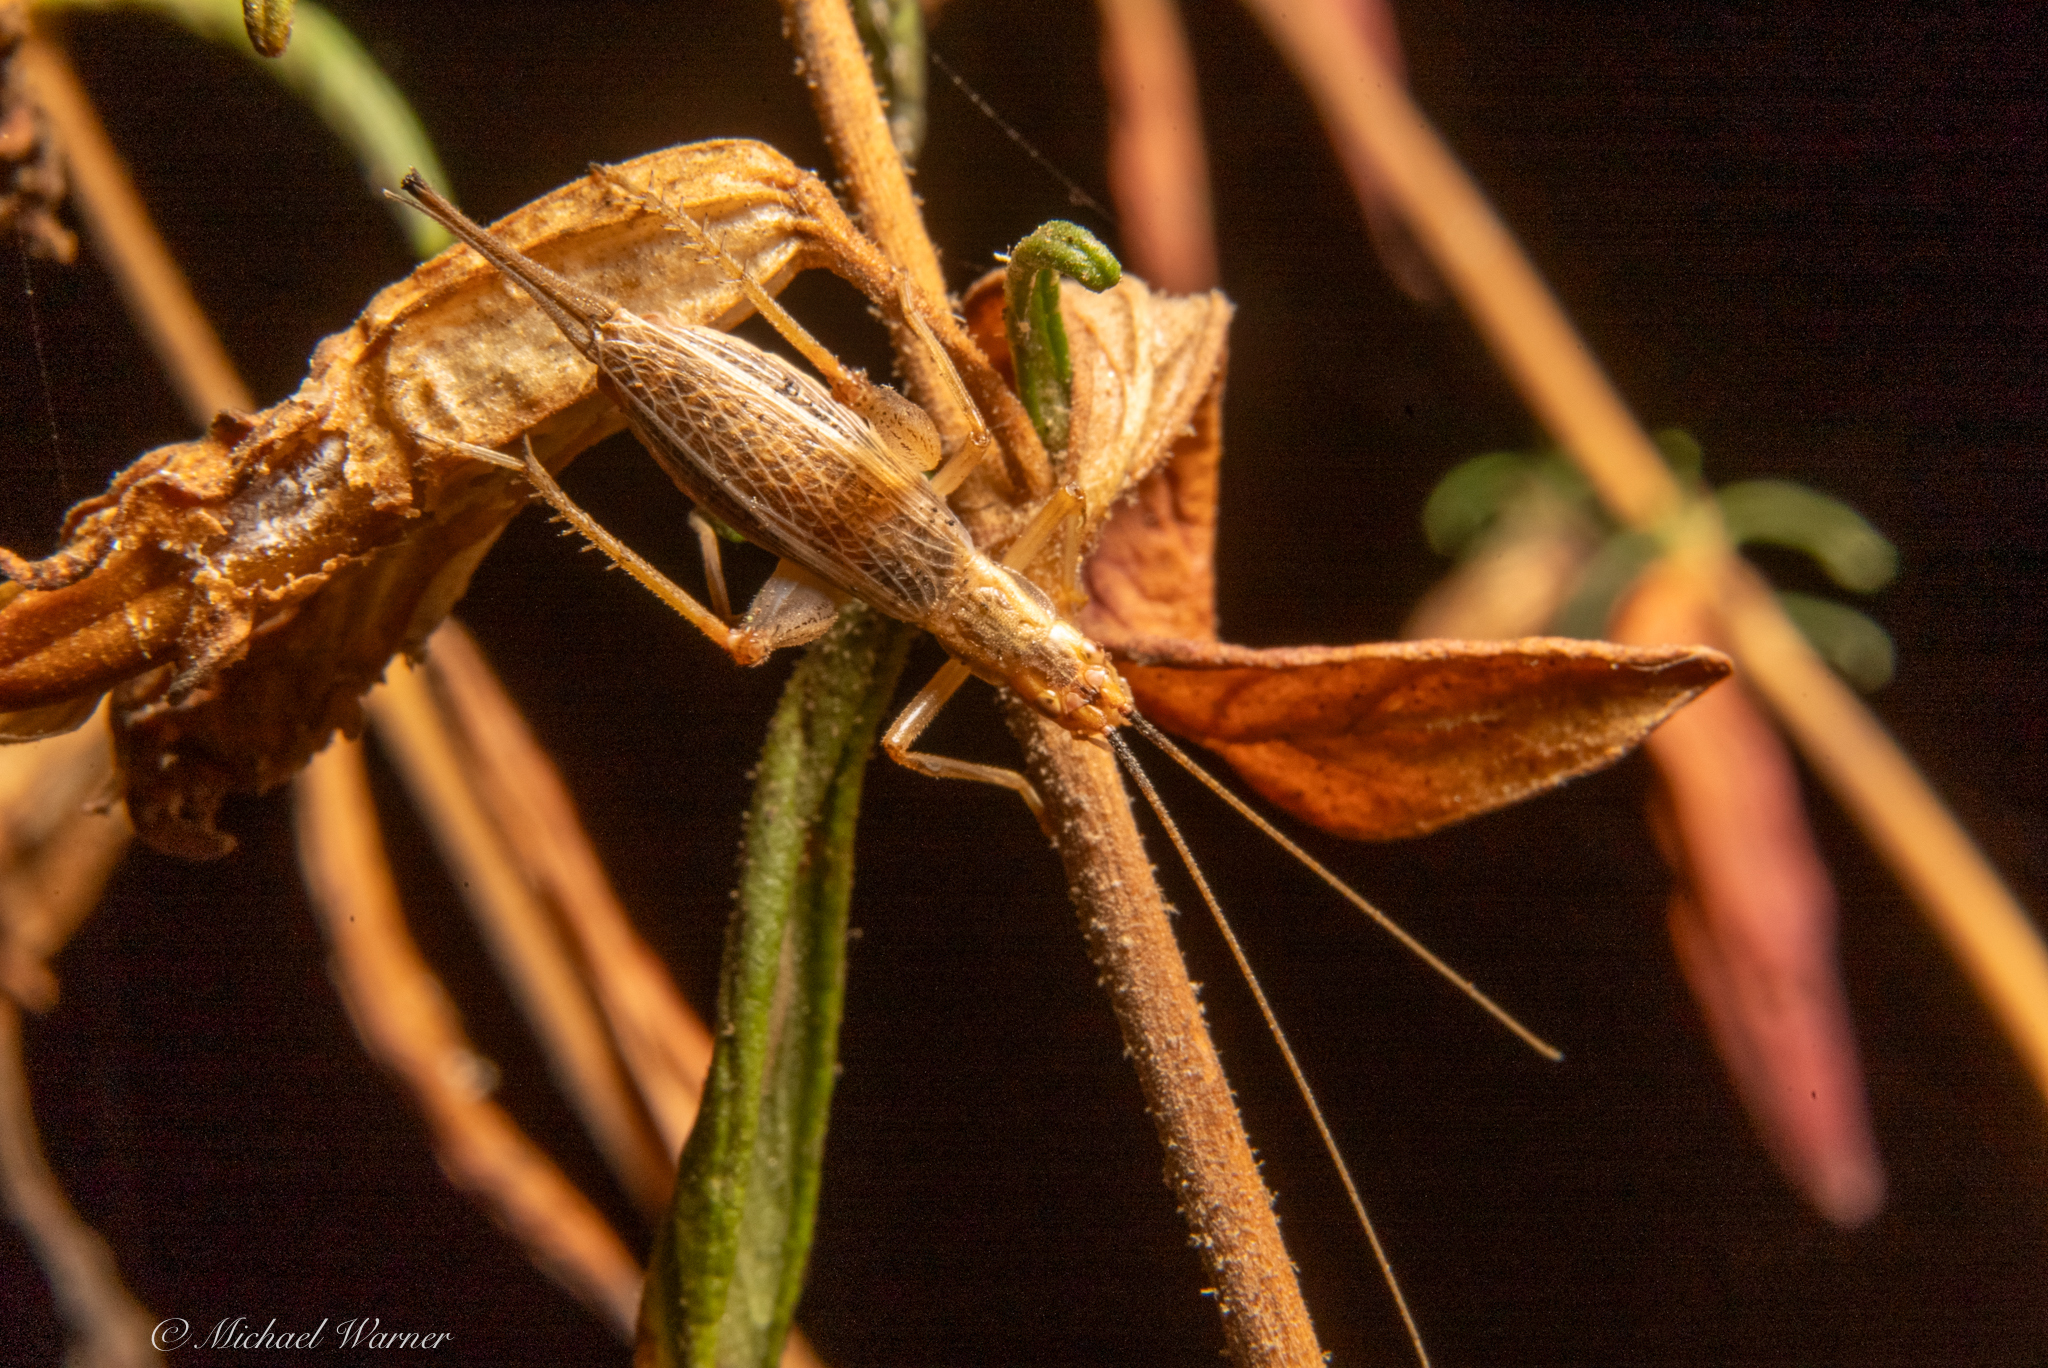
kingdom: Animalia
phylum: Arthropoda
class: Insecta
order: Orthoptera
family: Gryllidae
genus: Oecanthus
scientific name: Oecanthus californicus
